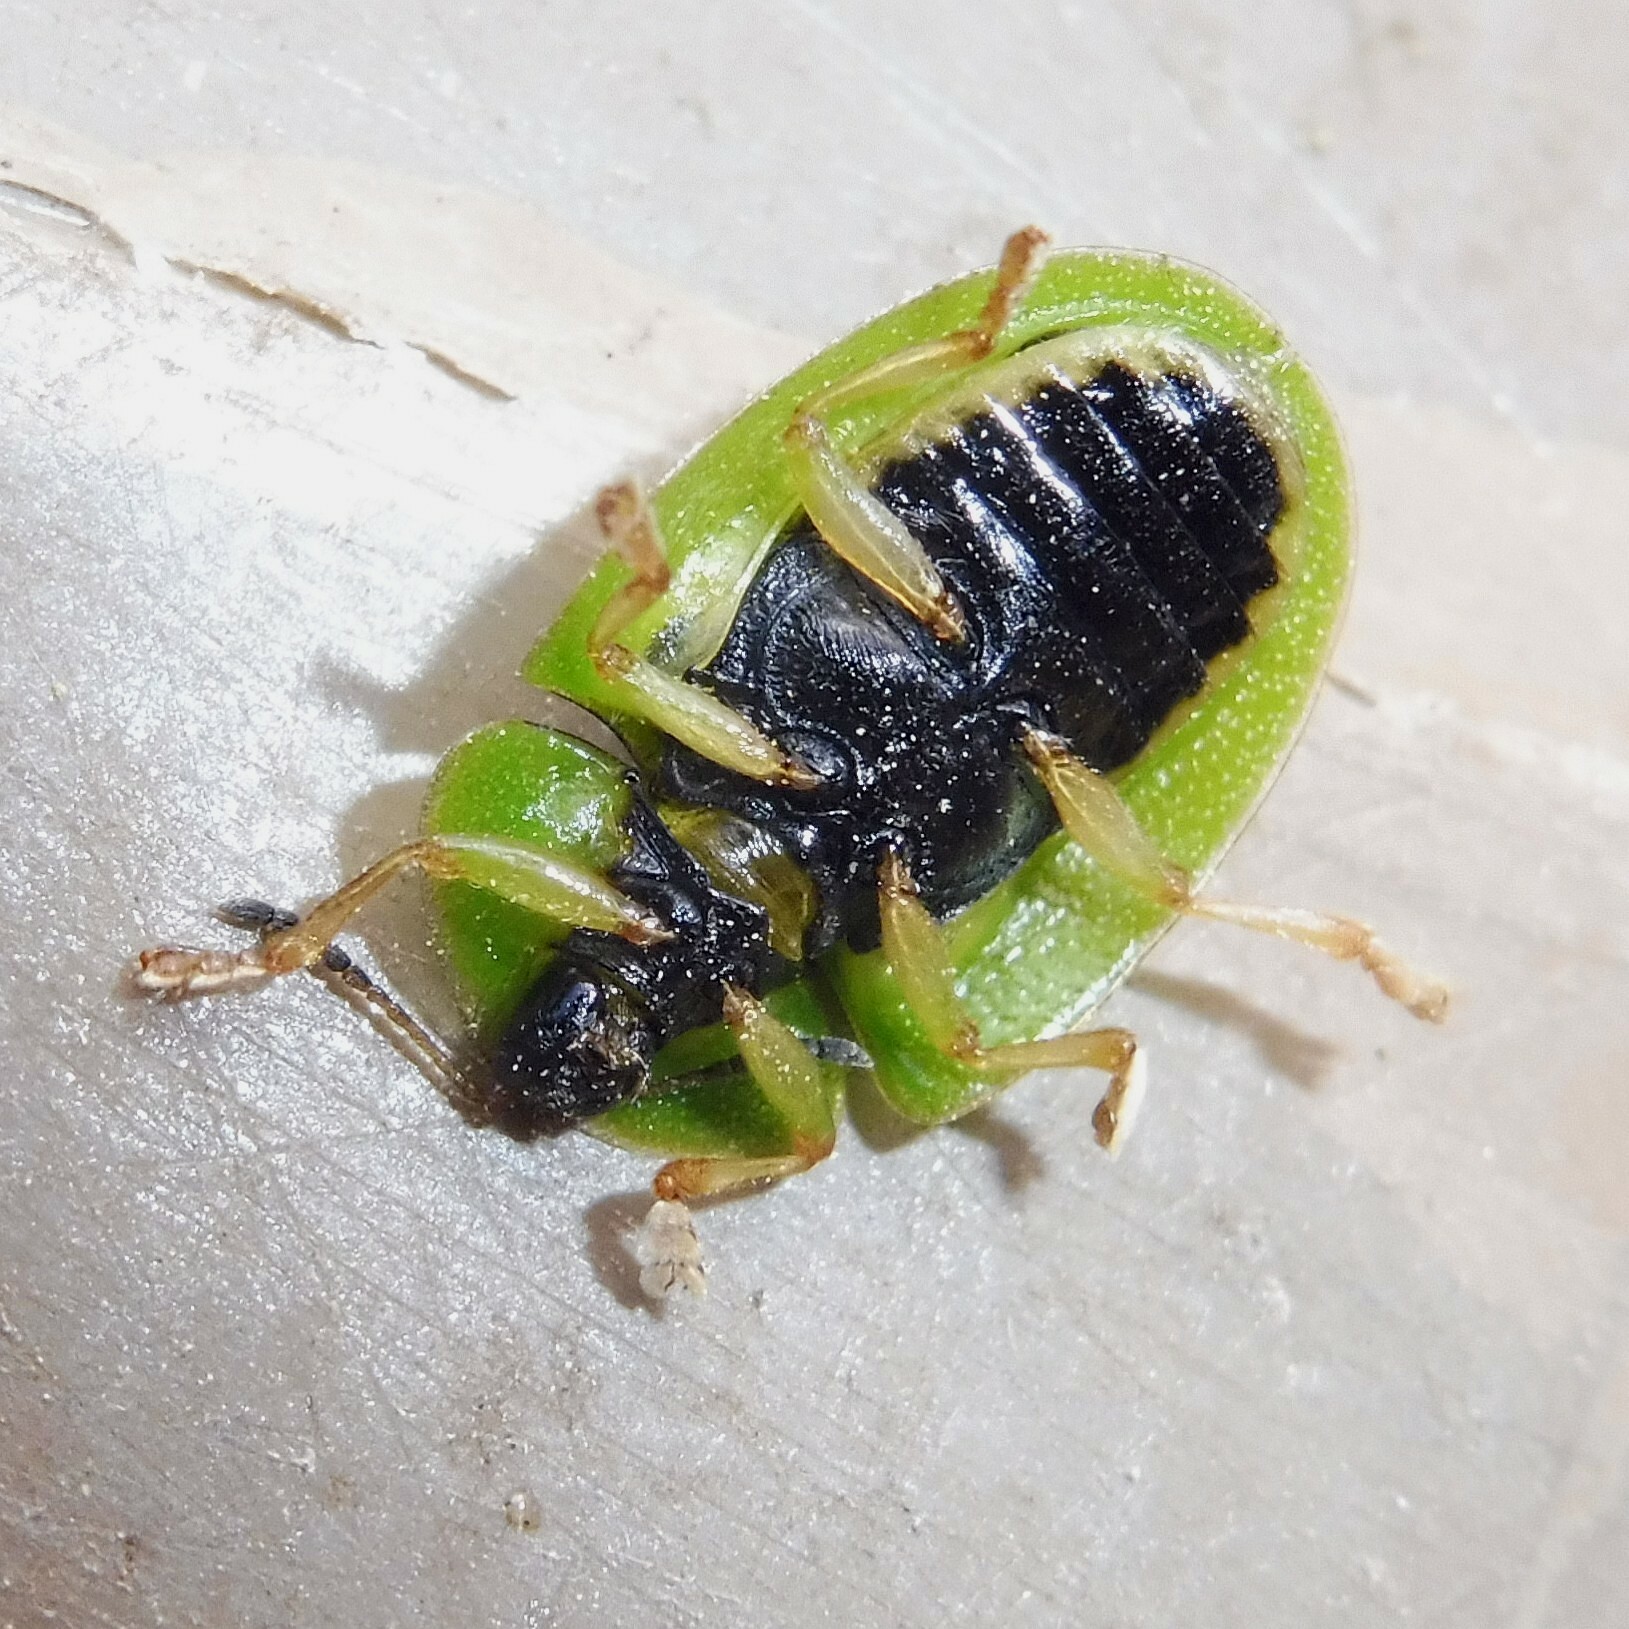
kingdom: Animalia
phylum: Arthropoda
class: Insecta
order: Coleoptera
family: Chrysomelidae
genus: Cassida
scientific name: Cassida viridis
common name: Green tortoise beetle
